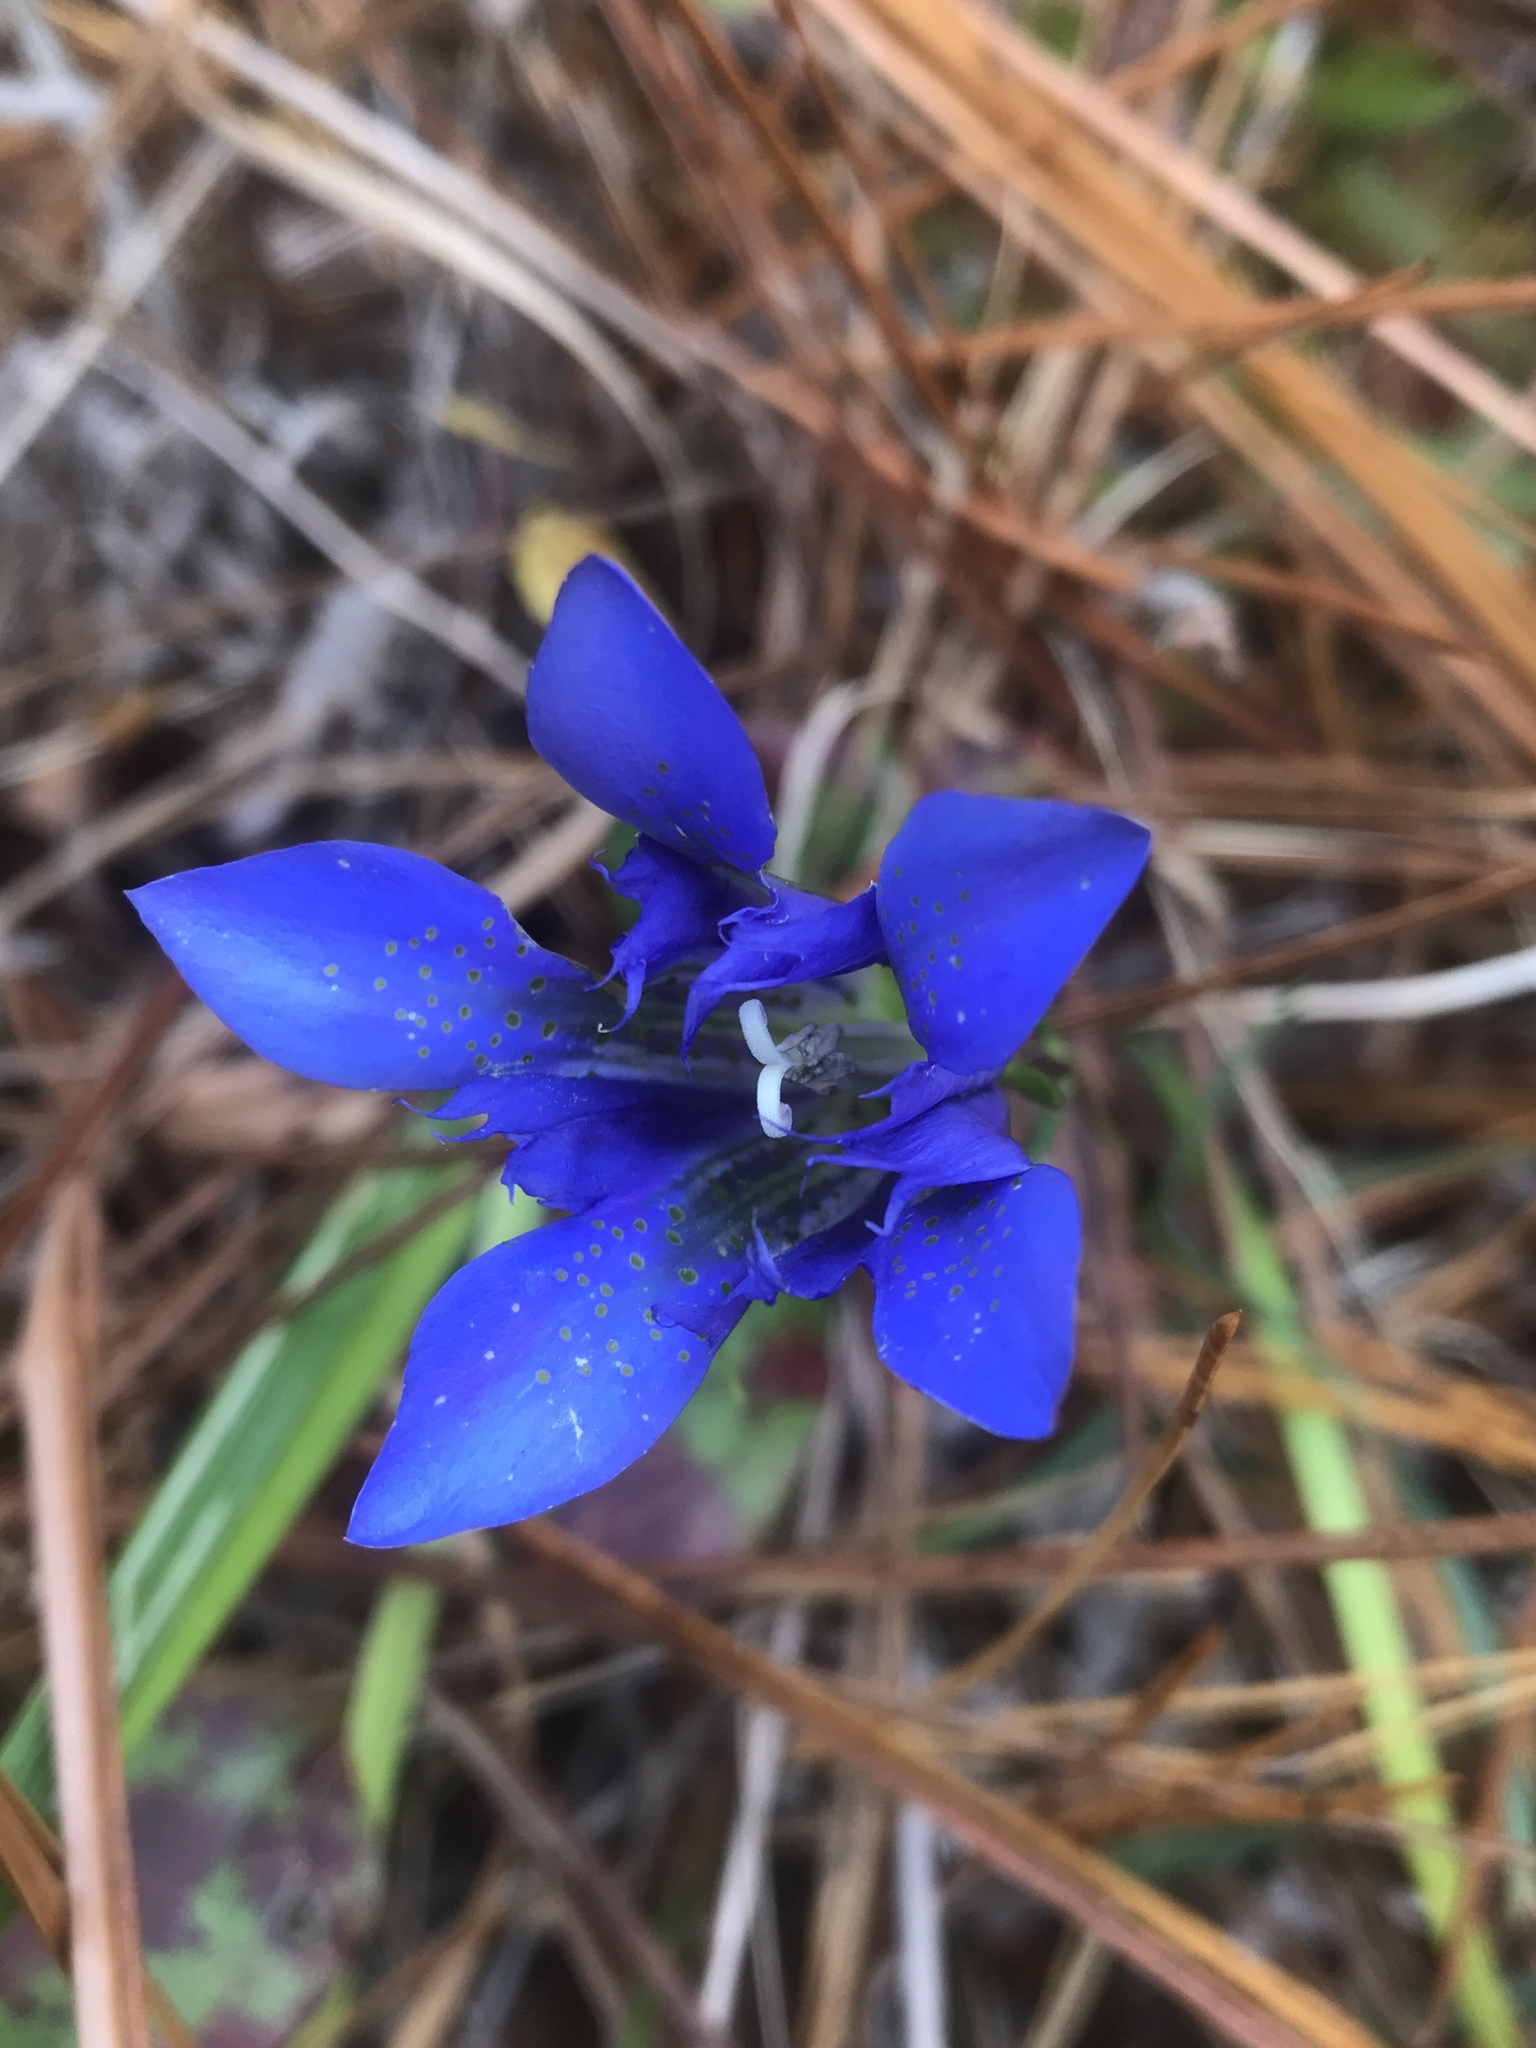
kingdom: Plantae
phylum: Tracheophyta
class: Magnoliopsida
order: Gentianales
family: Gentianaceae
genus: Gentiana
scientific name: Gentiana autumnalis
